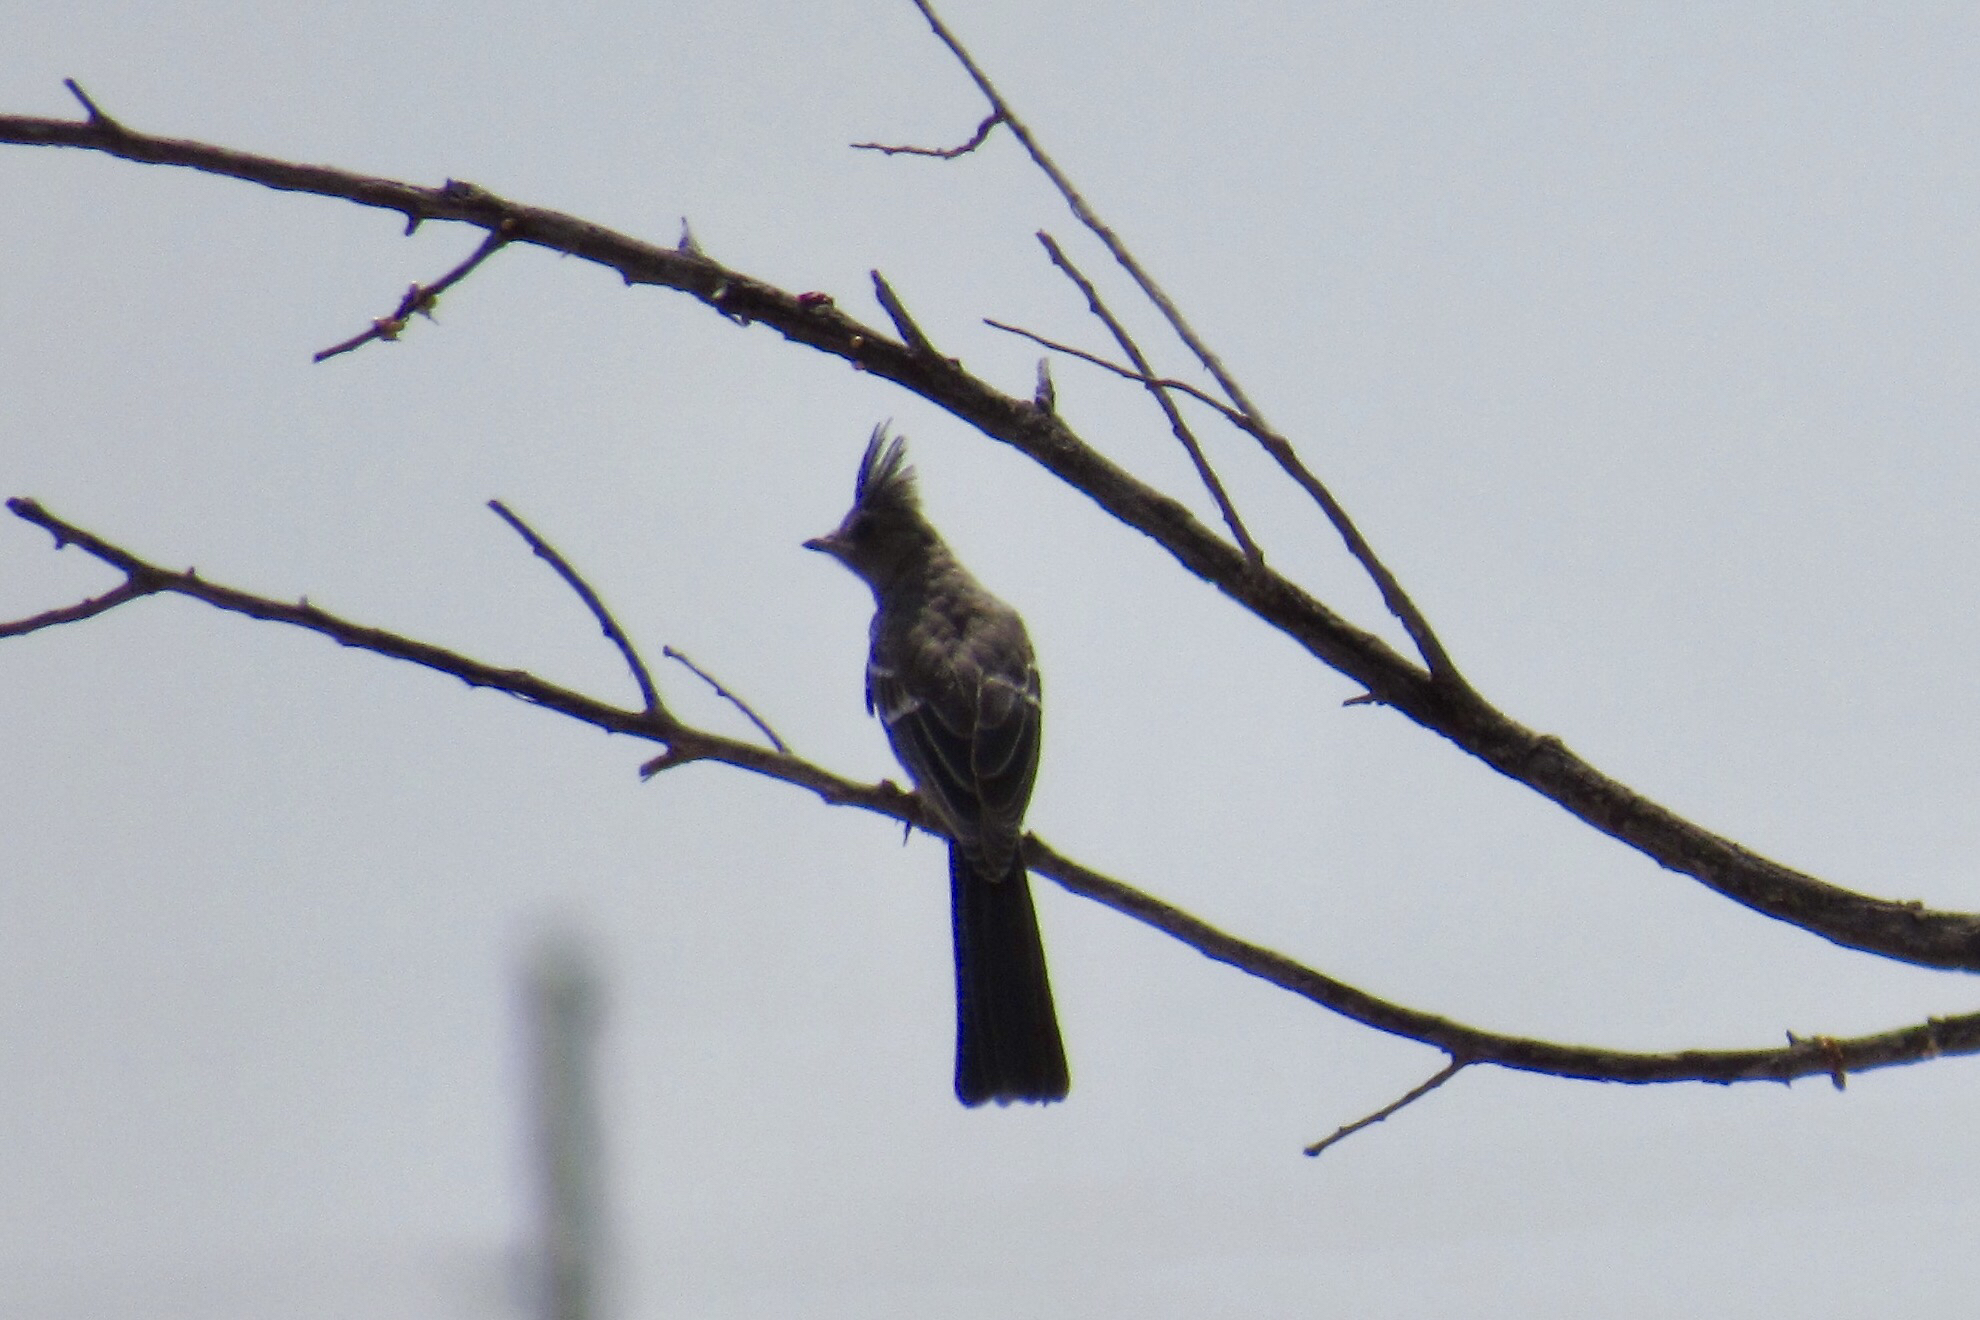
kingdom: Animalia
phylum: Chordata
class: Aves
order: Passeriformes
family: Ptilogonatidae
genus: Phainopepla
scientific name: Phainopepla nitens
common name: Phainopepla
